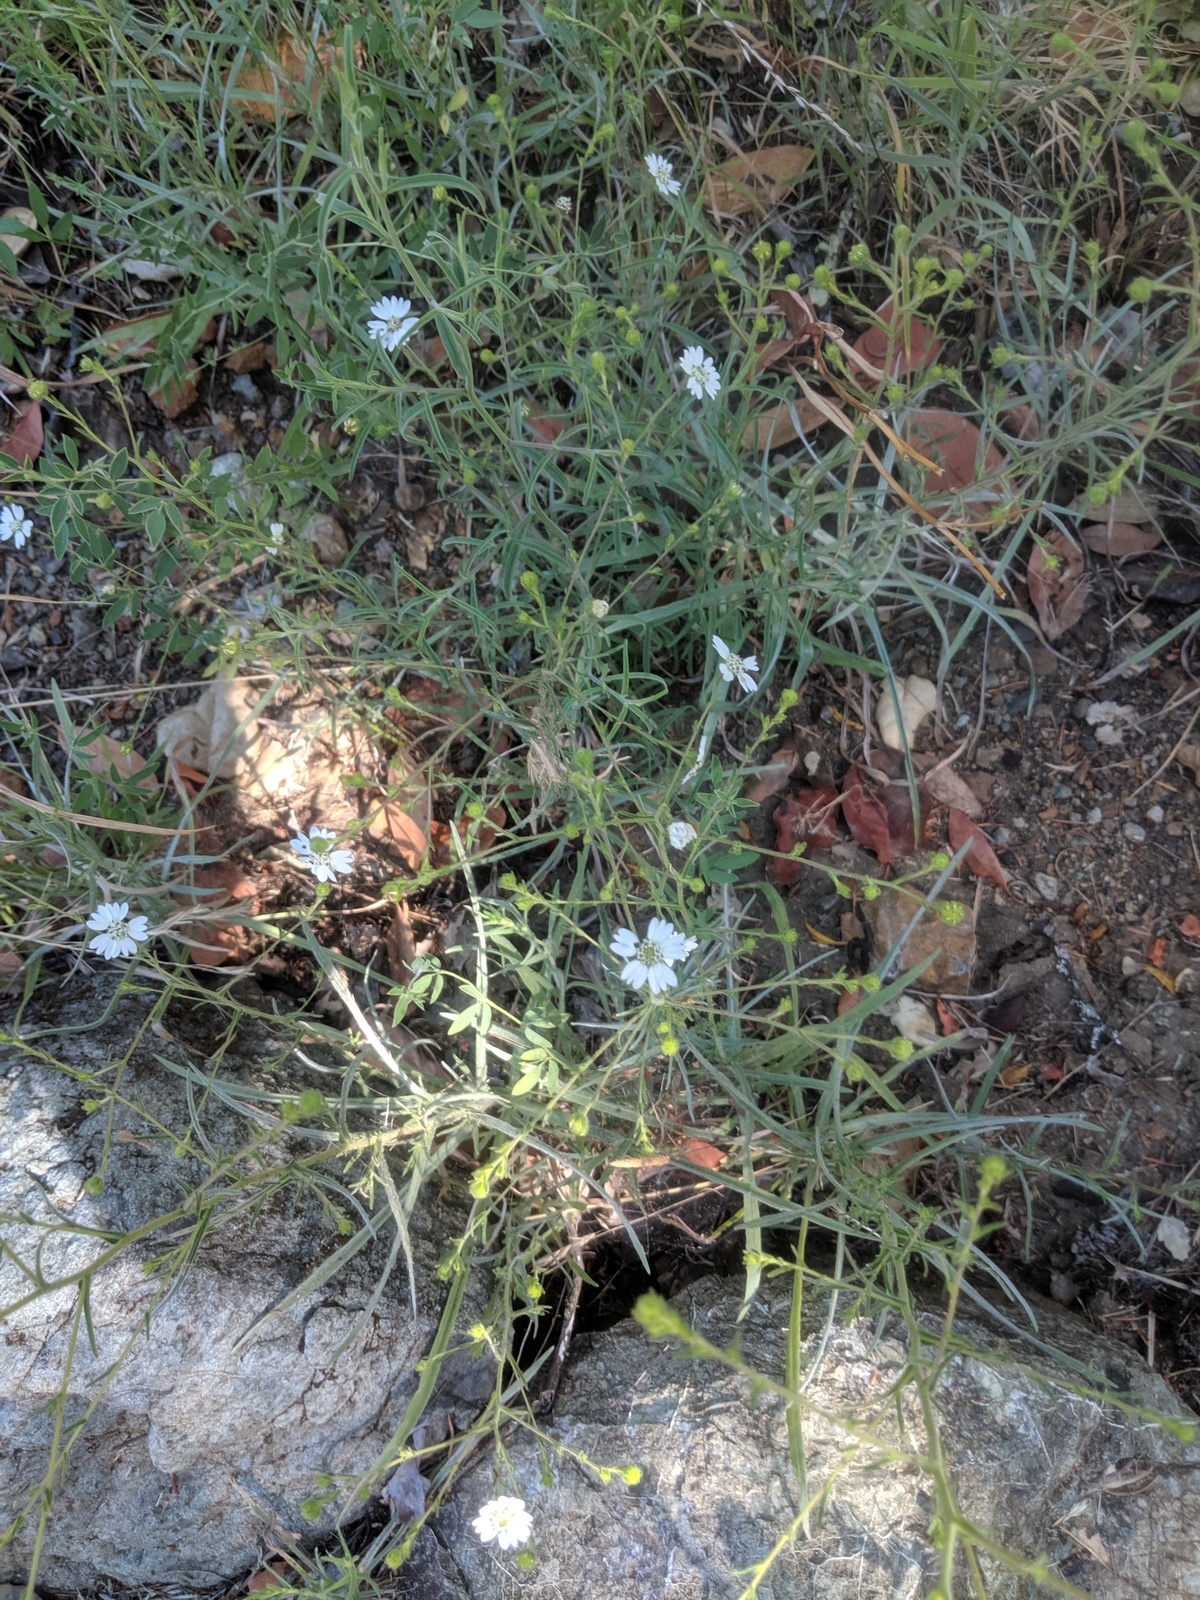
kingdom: Plantae
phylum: Tracheophyta
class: Magnoliopsida
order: Asterales
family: Asteraceae
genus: Hemizonia
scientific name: Hemizonia congesta
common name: Hayfield tarweed
